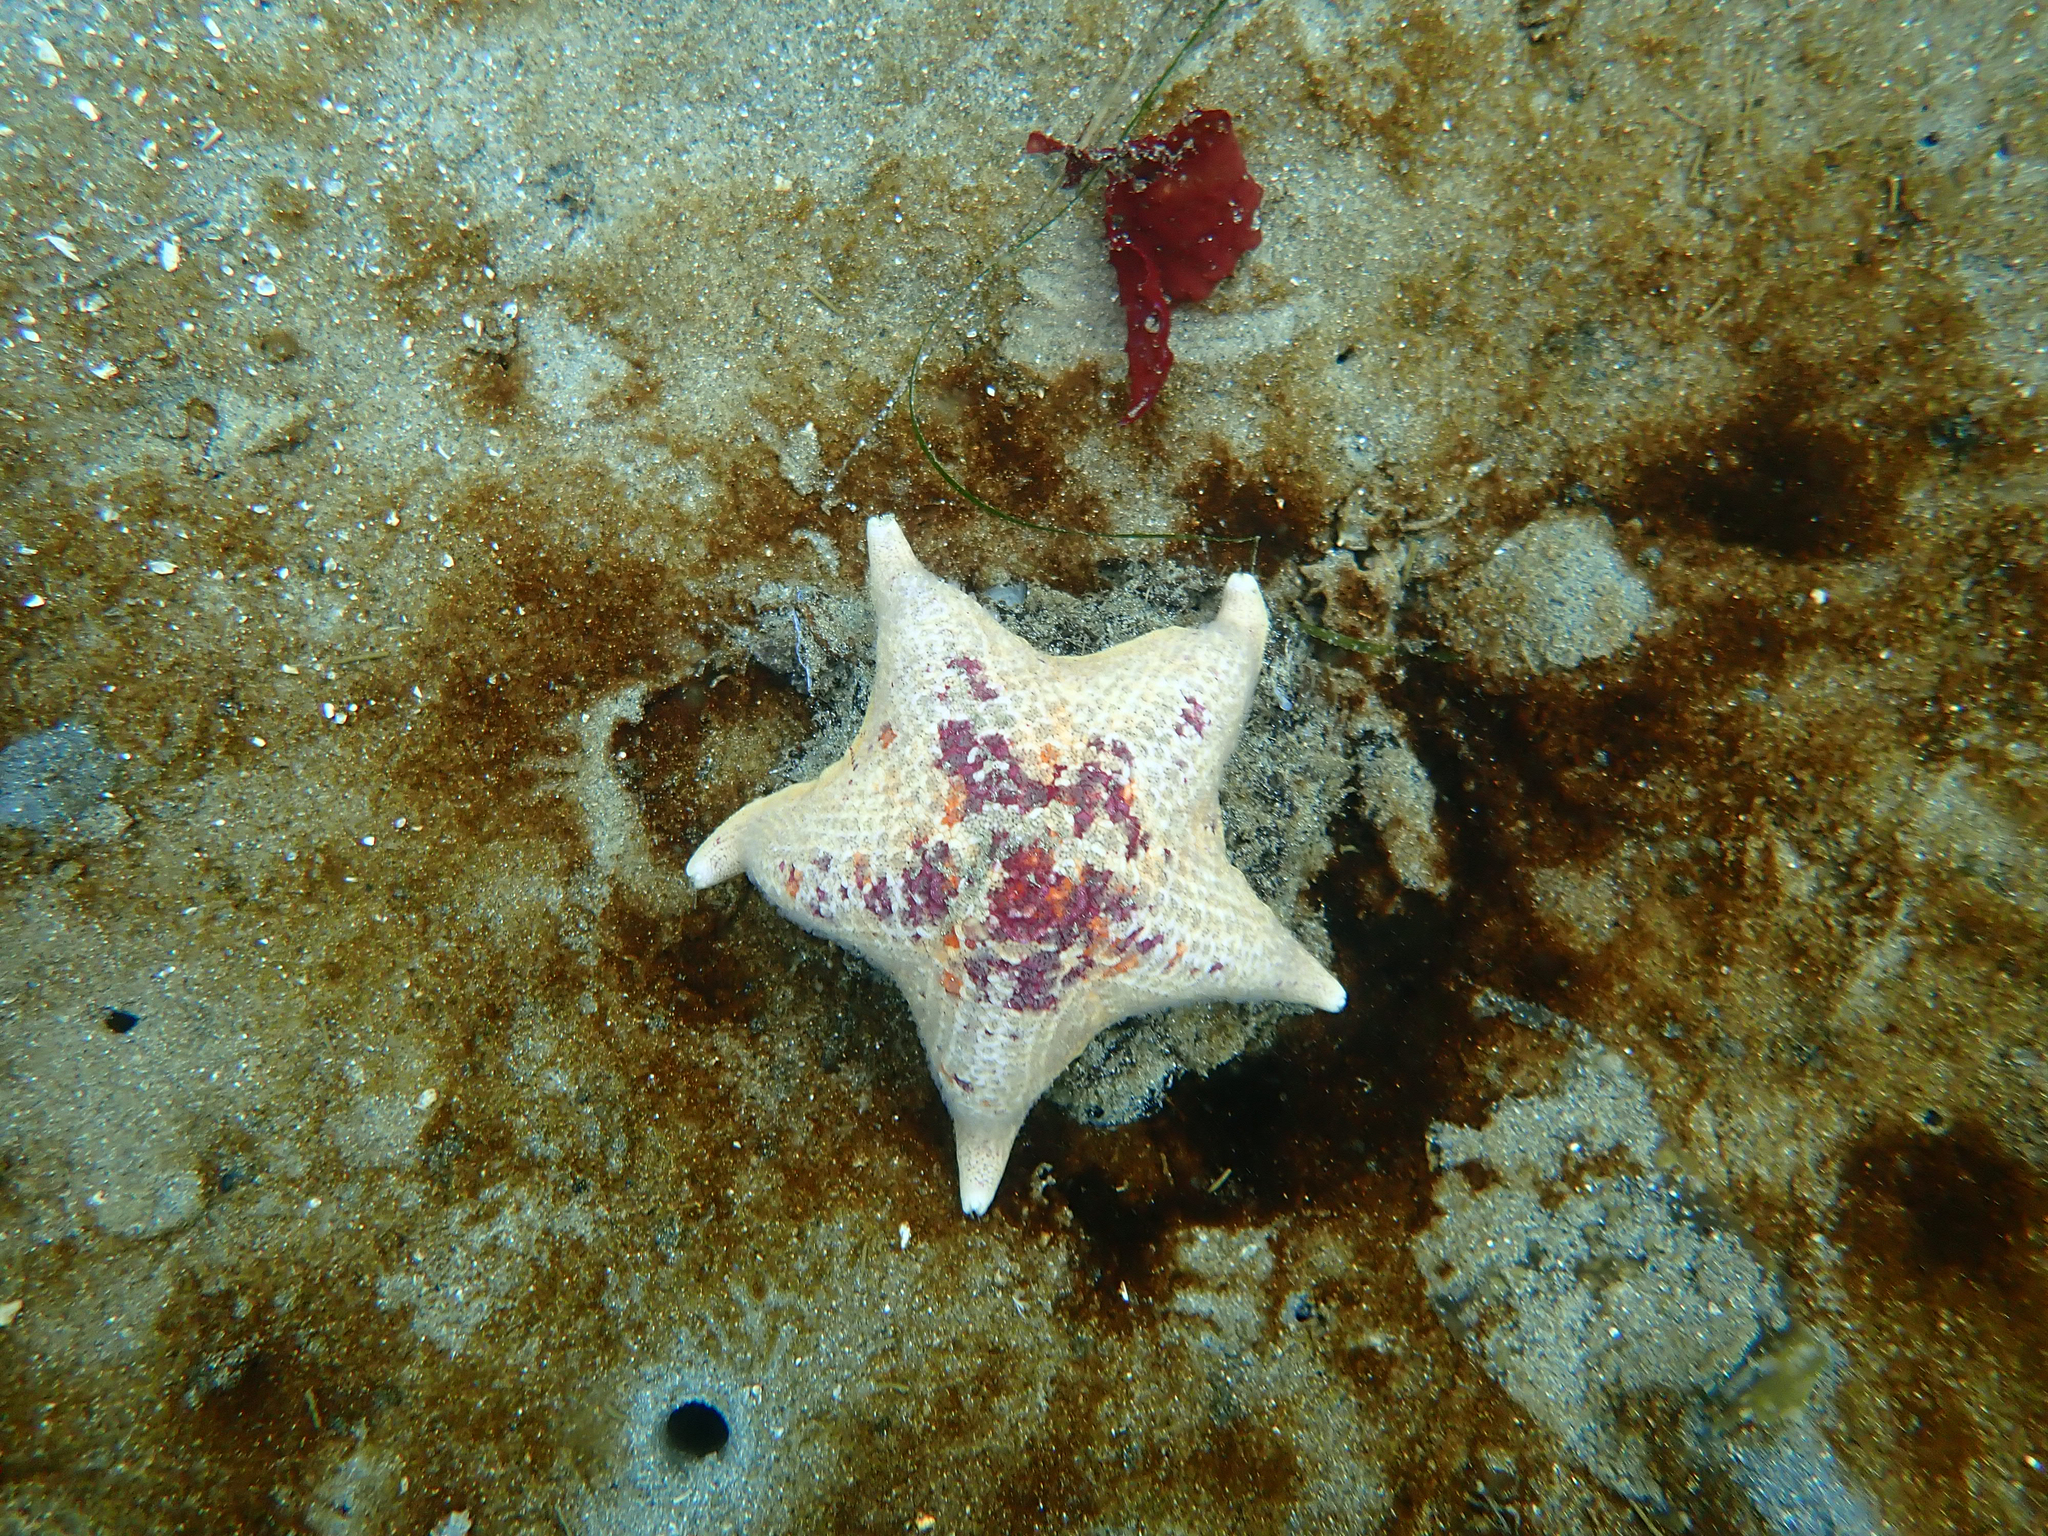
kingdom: Animalia
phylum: Echinodermata
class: Asteroidea
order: Valvatida
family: Asterinidae
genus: Patiria
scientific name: Patiria miniata
